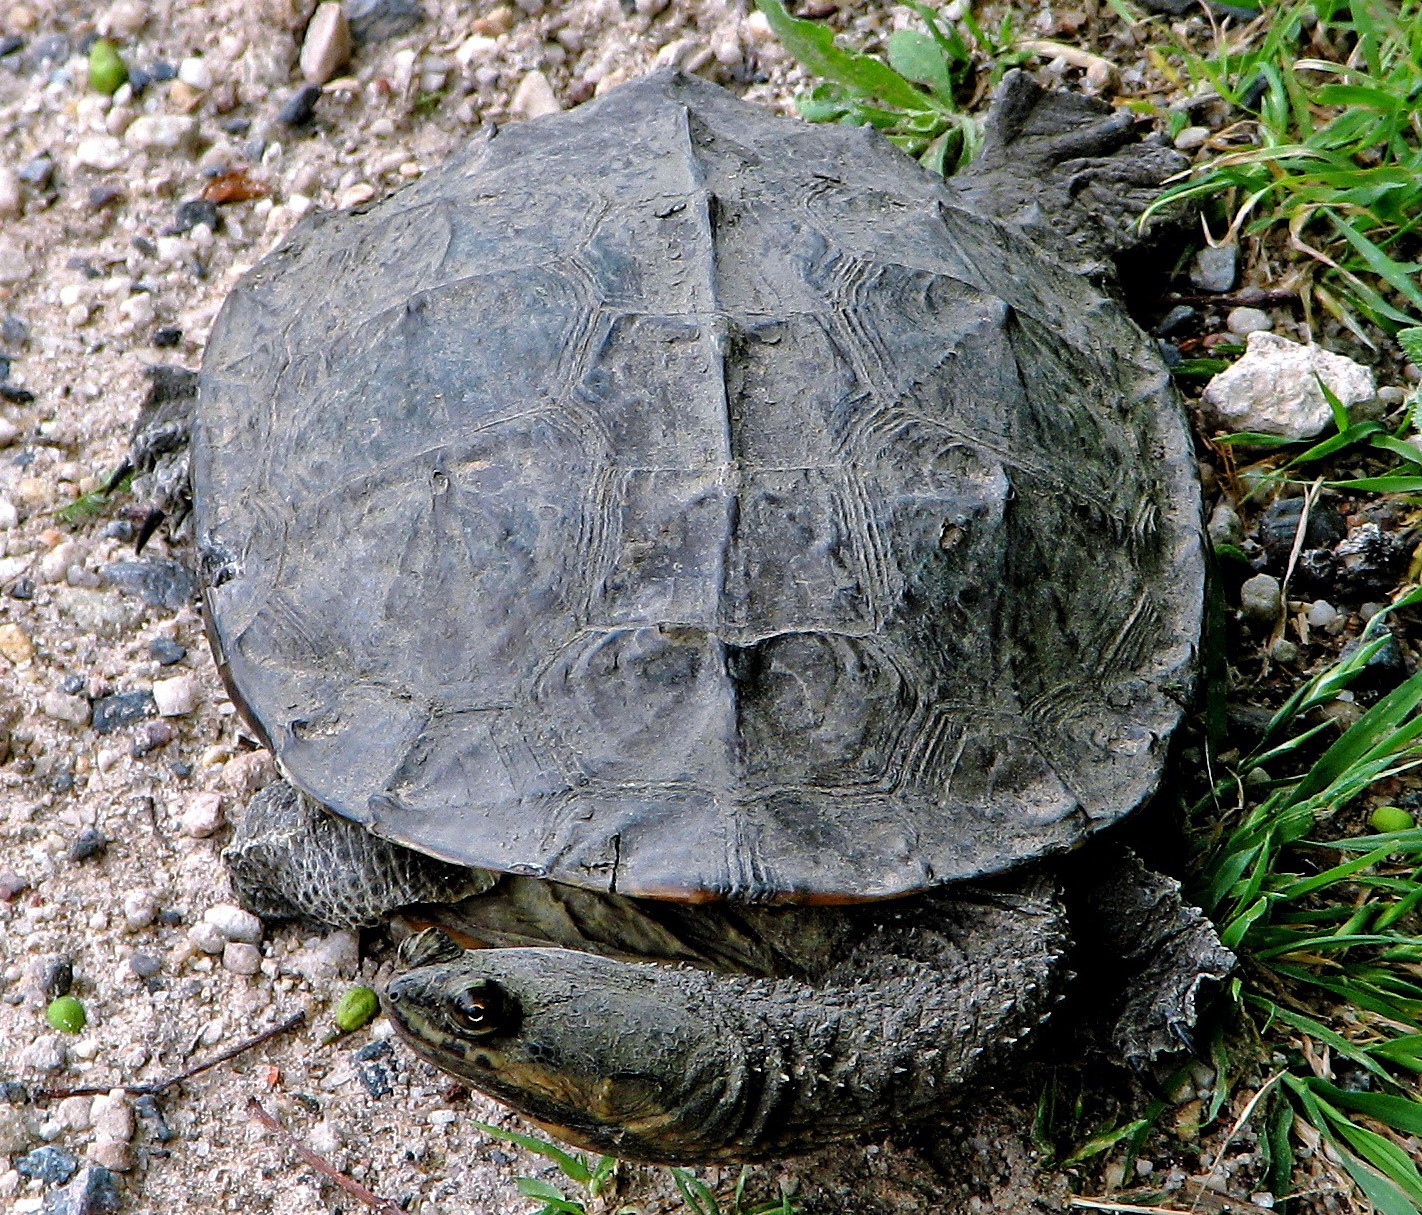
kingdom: Animalia
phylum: Chordata
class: Testudines
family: Chelidae
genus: Hydromedusa
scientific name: Hydromedusa tectifera
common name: Argentine snake-necked turtle
